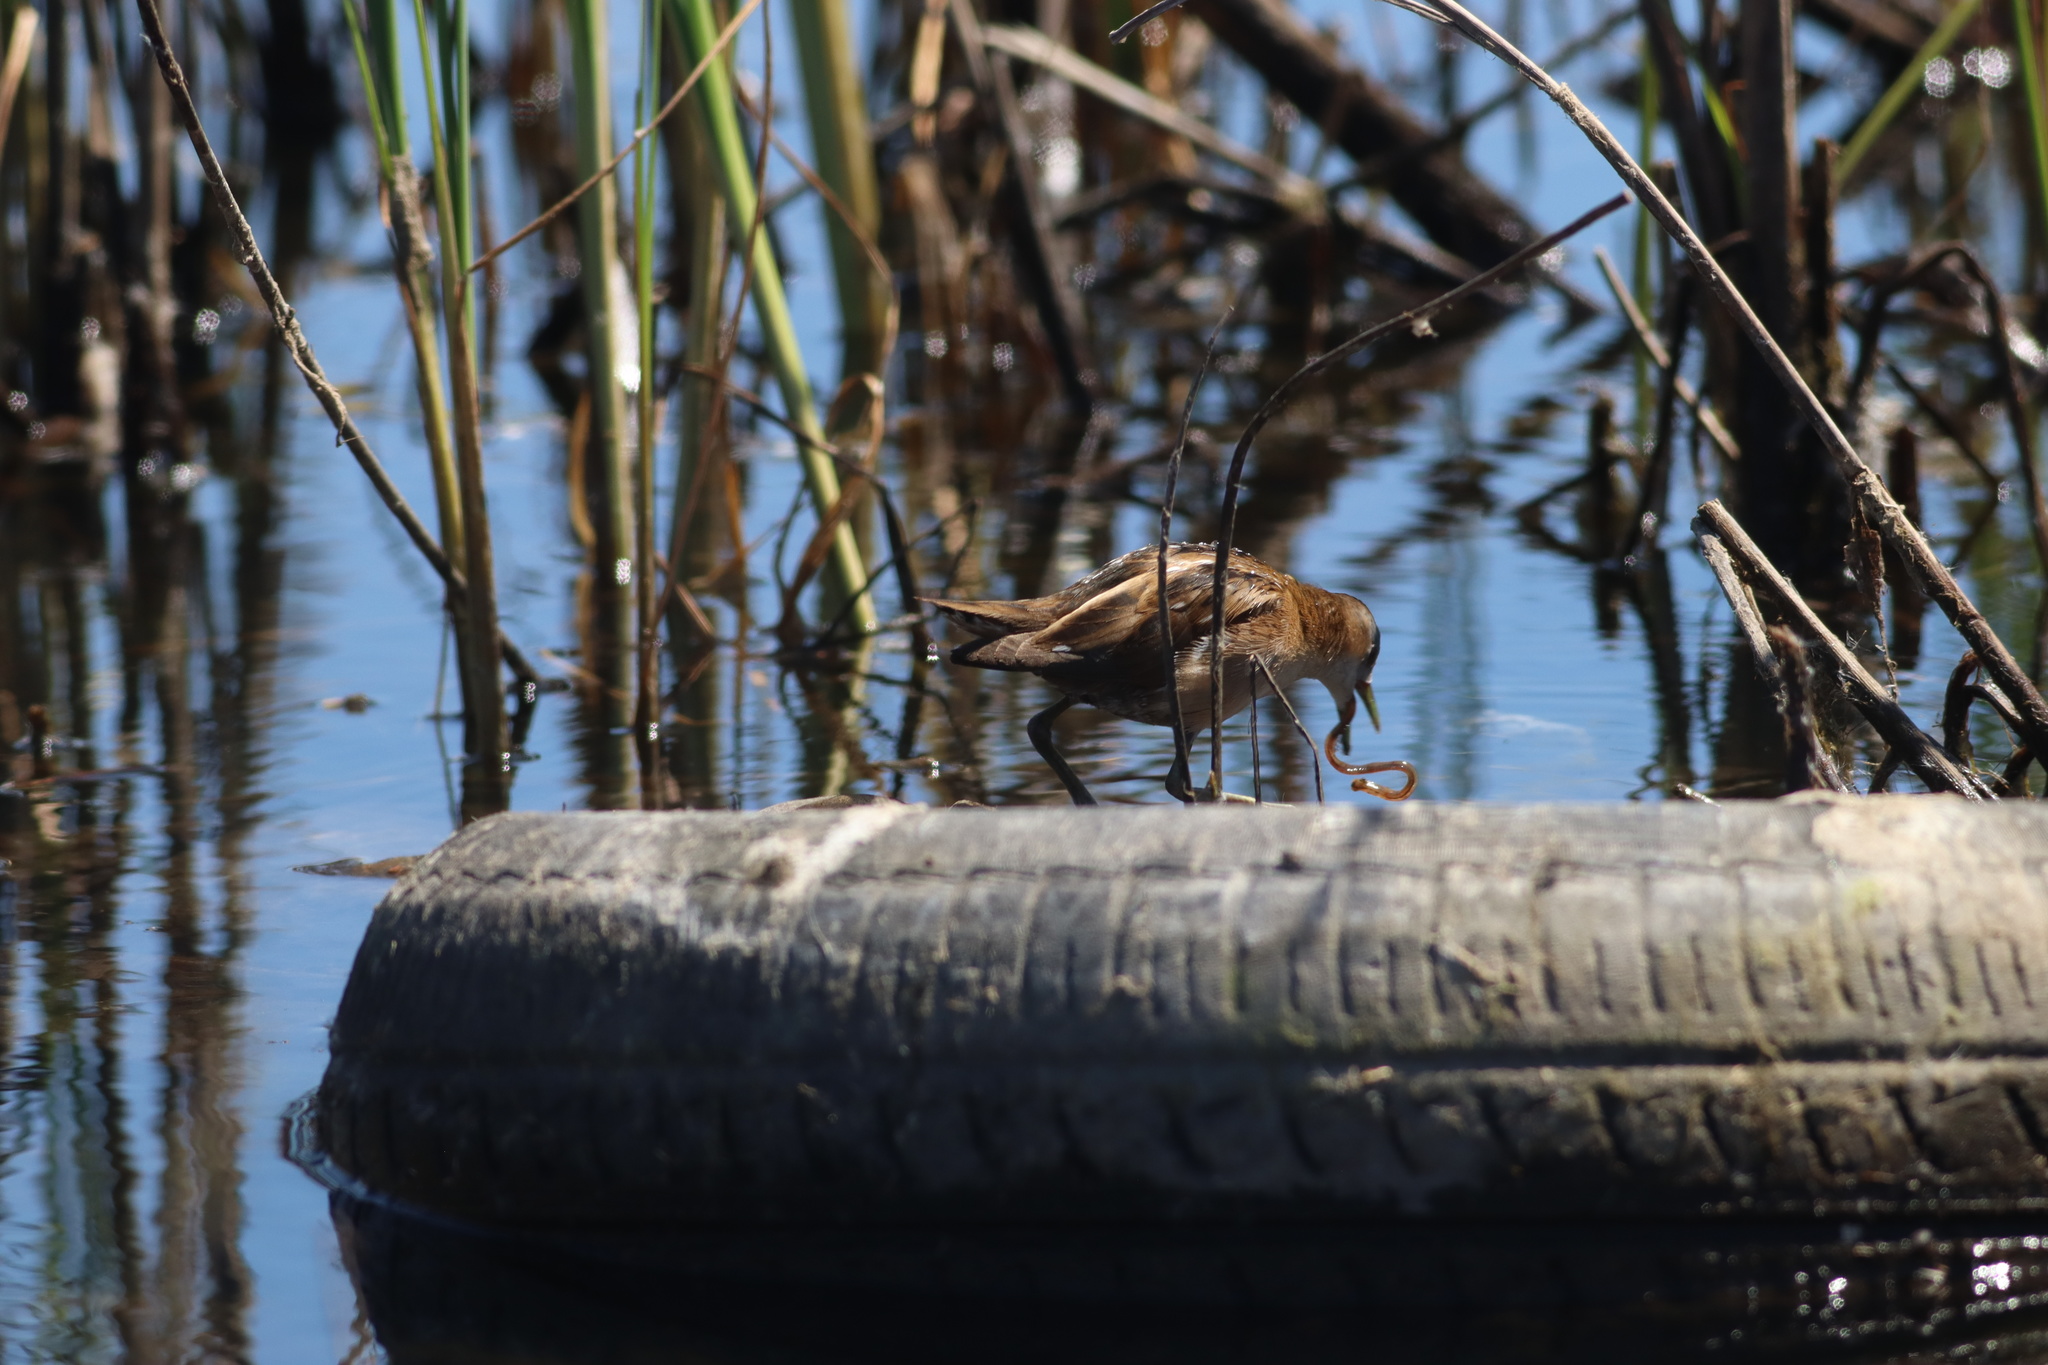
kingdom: Animalia
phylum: Chordata
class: Aves
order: Gruiformes
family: Rallidae
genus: Porzana
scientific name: Porzana parva
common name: Little crake
